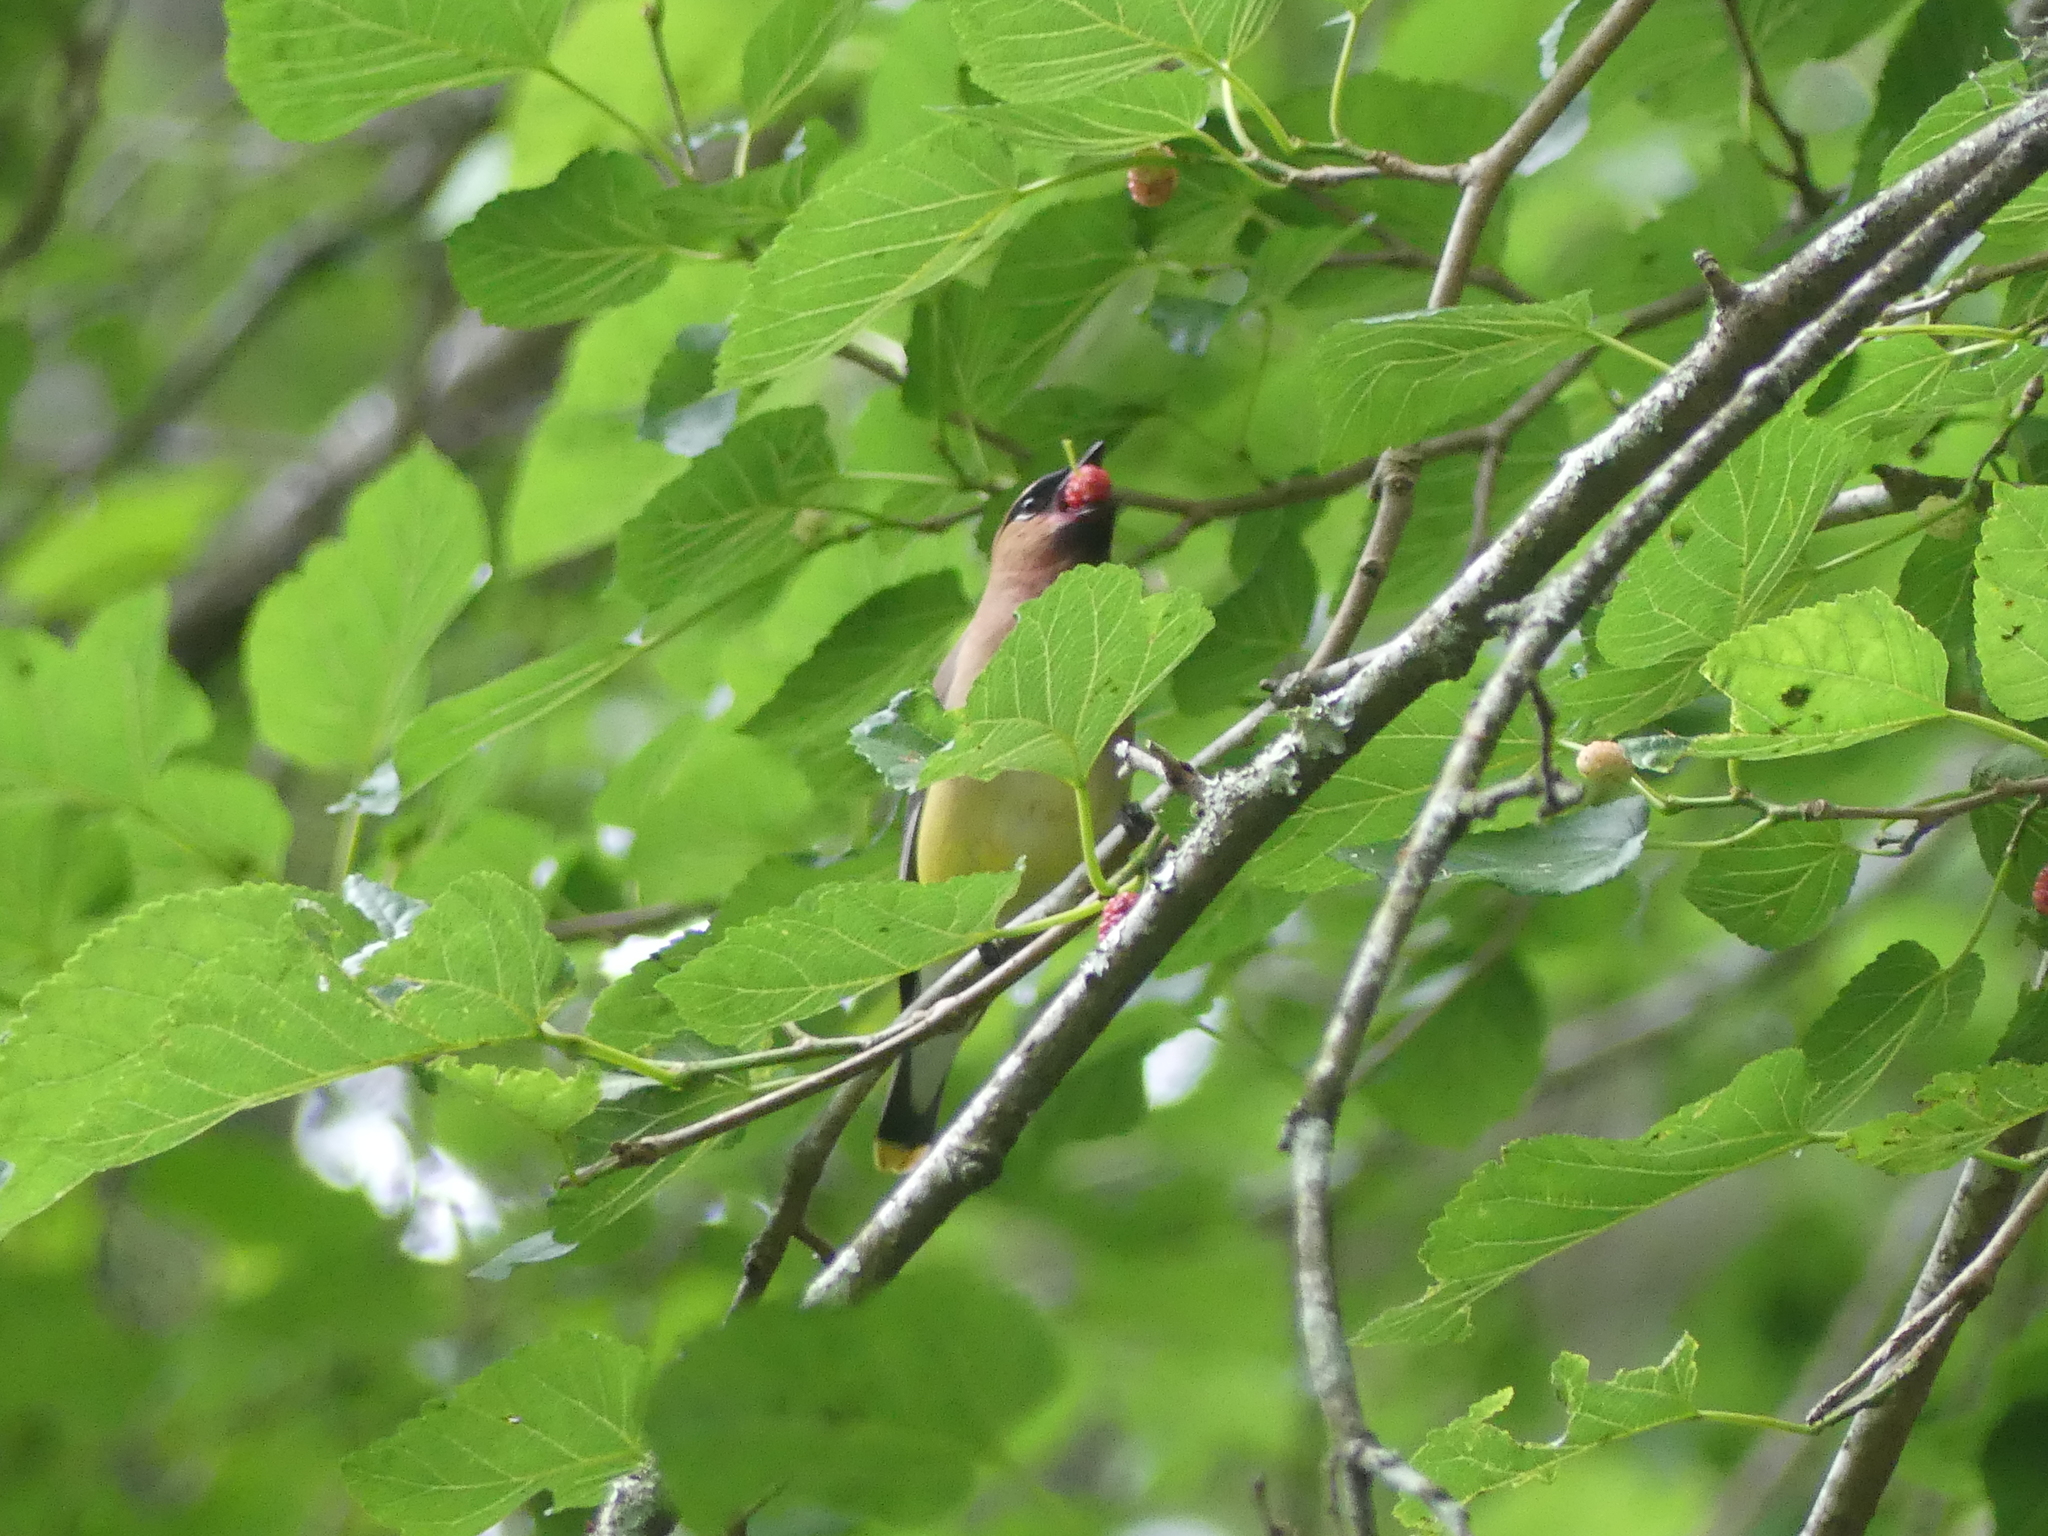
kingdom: Animalia
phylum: Chordata
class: Aves
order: Passeriformes
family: Bombycillidae
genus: Bombycilla
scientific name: Bombycilla cedrorum
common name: Cedar waxwing
